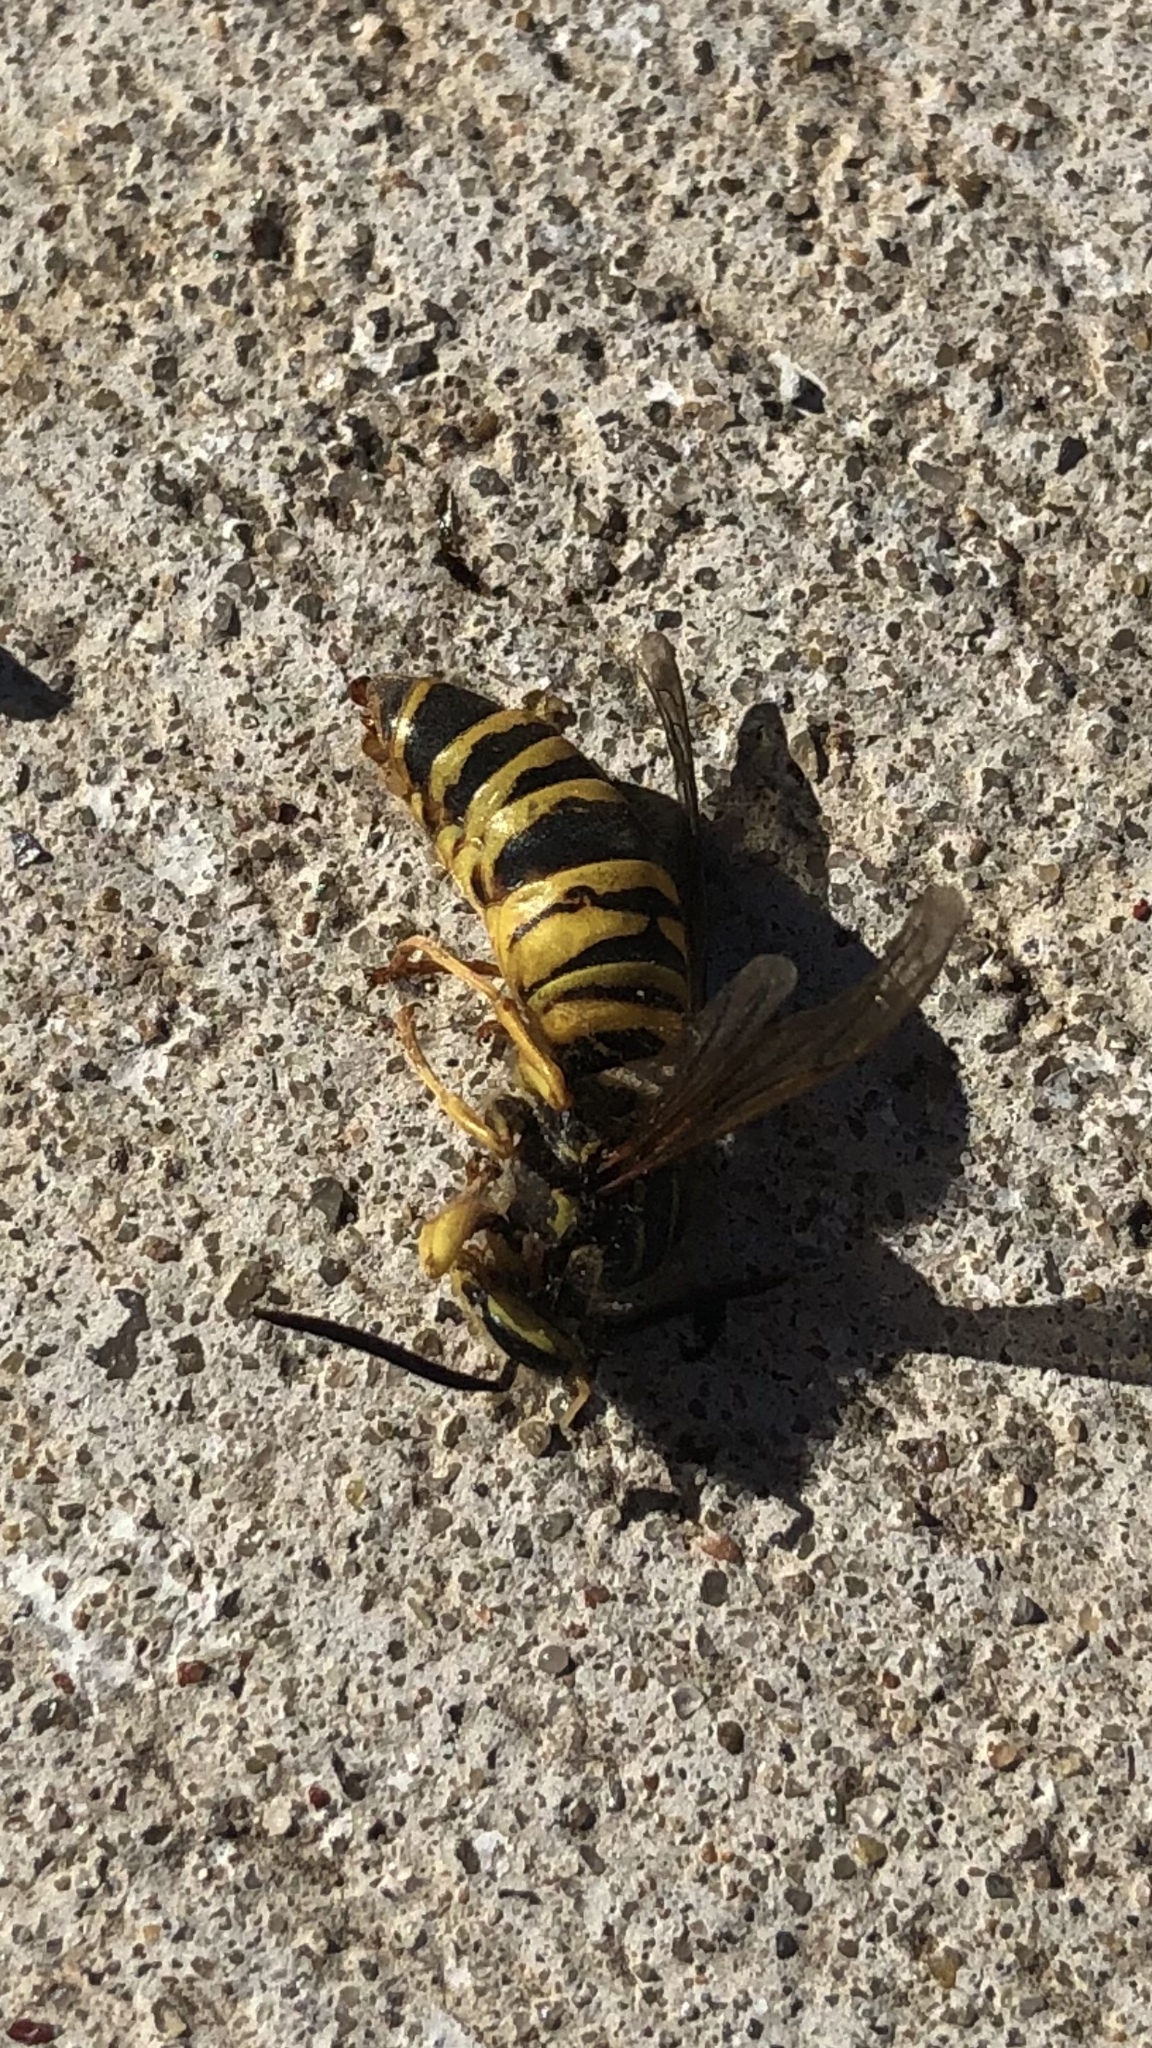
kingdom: Animalia
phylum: Arthropoda
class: Insecta
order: Hymenoptera
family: Vespidae
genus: Vespula
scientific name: Vespula squamosa
